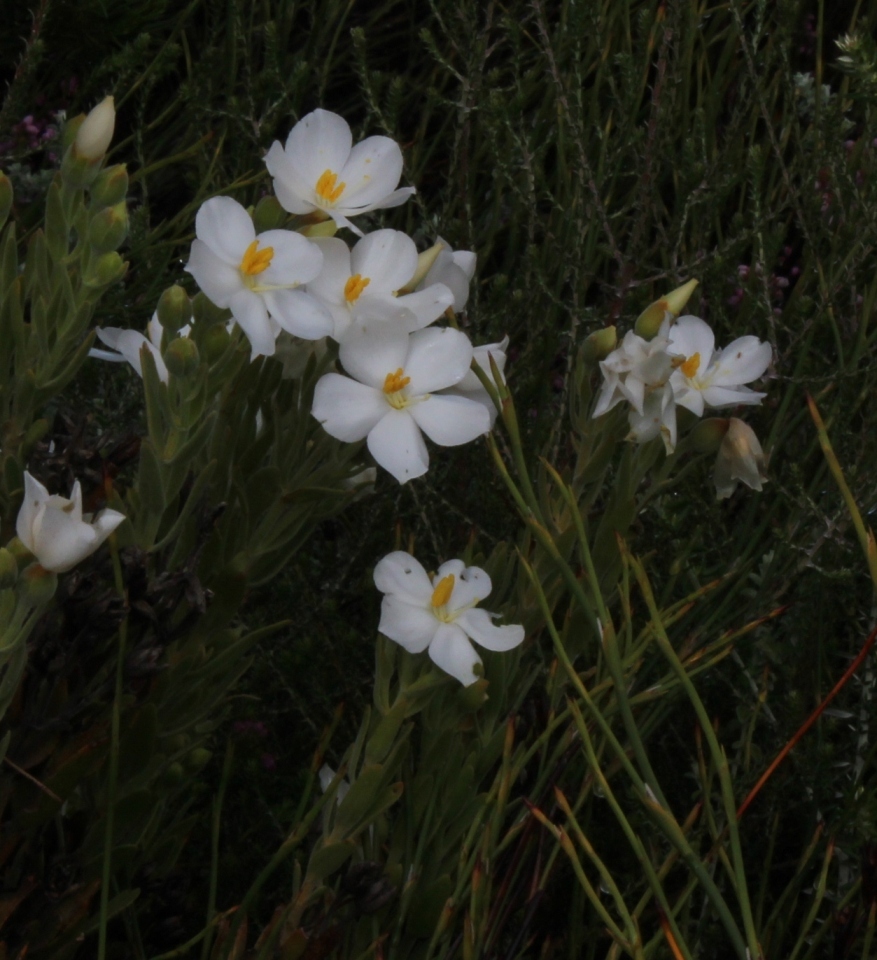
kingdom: Plantae
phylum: Tracheophyta
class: Magnoliopsida
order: Gentianales
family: Gentianaceae
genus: Orphium
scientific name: Orphium frutescens
